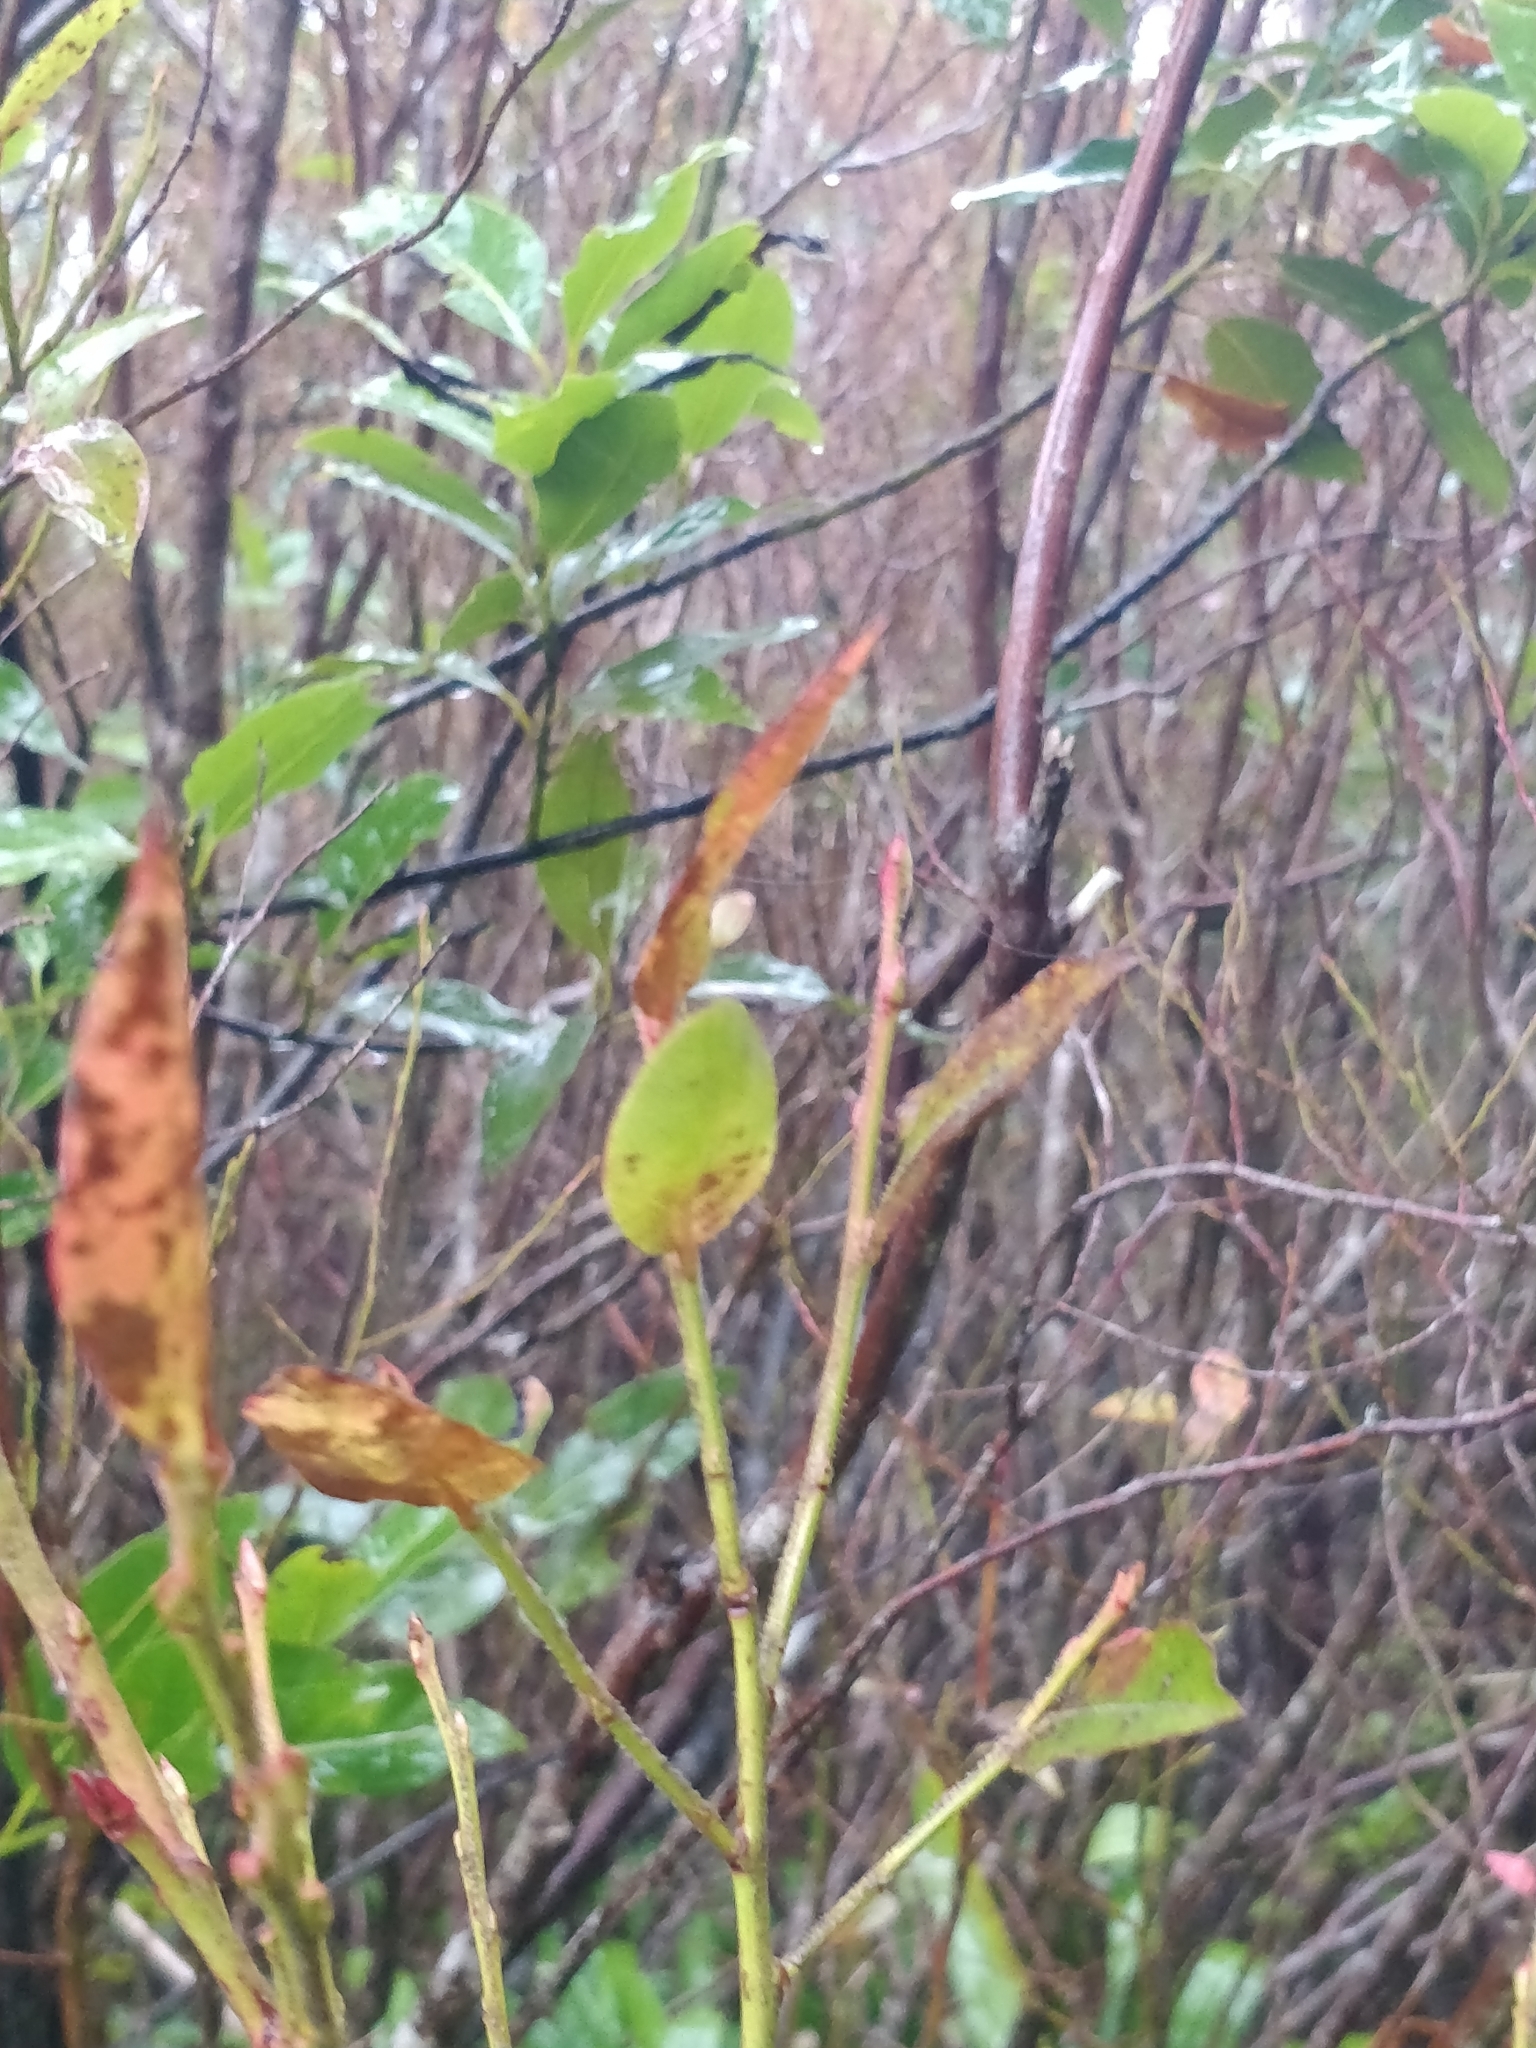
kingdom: Plantae
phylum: Tracheophyta
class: Magnoliopsida
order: Ericales
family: Ericaceae
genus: Vaccinium
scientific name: Vaccinium padifolium
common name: Madeiran blueberry
